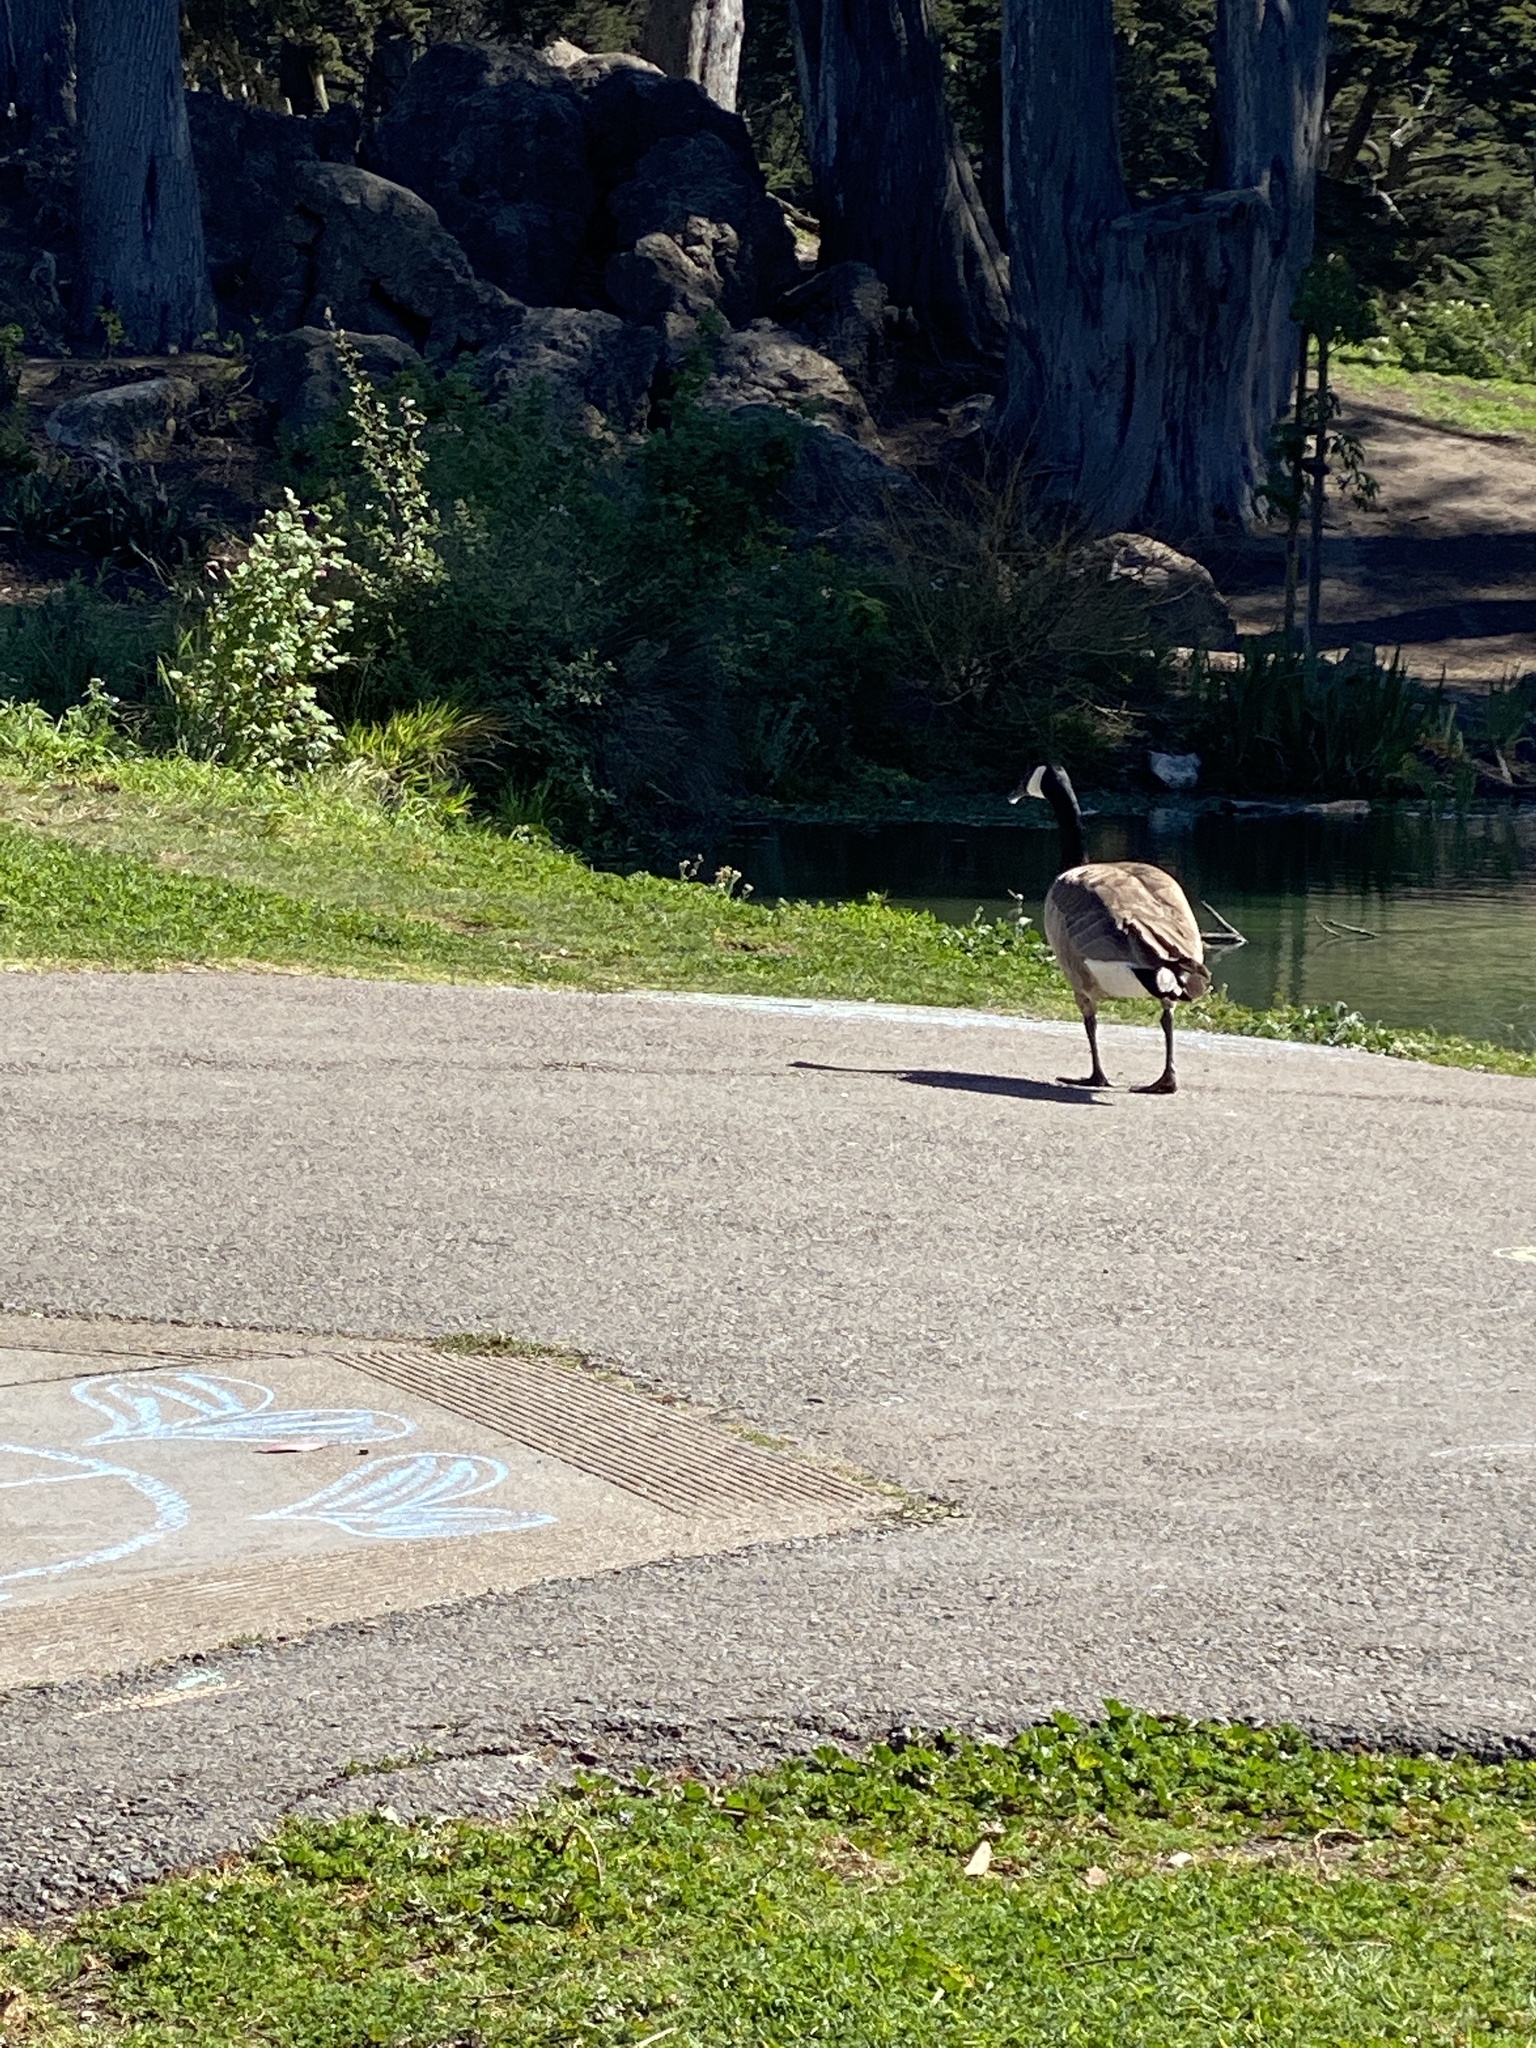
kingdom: Animalia
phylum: Chordata
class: Aves
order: Anseriformes
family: Anatidae
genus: Branta
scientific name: Branta canadensis
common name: Canada goose
